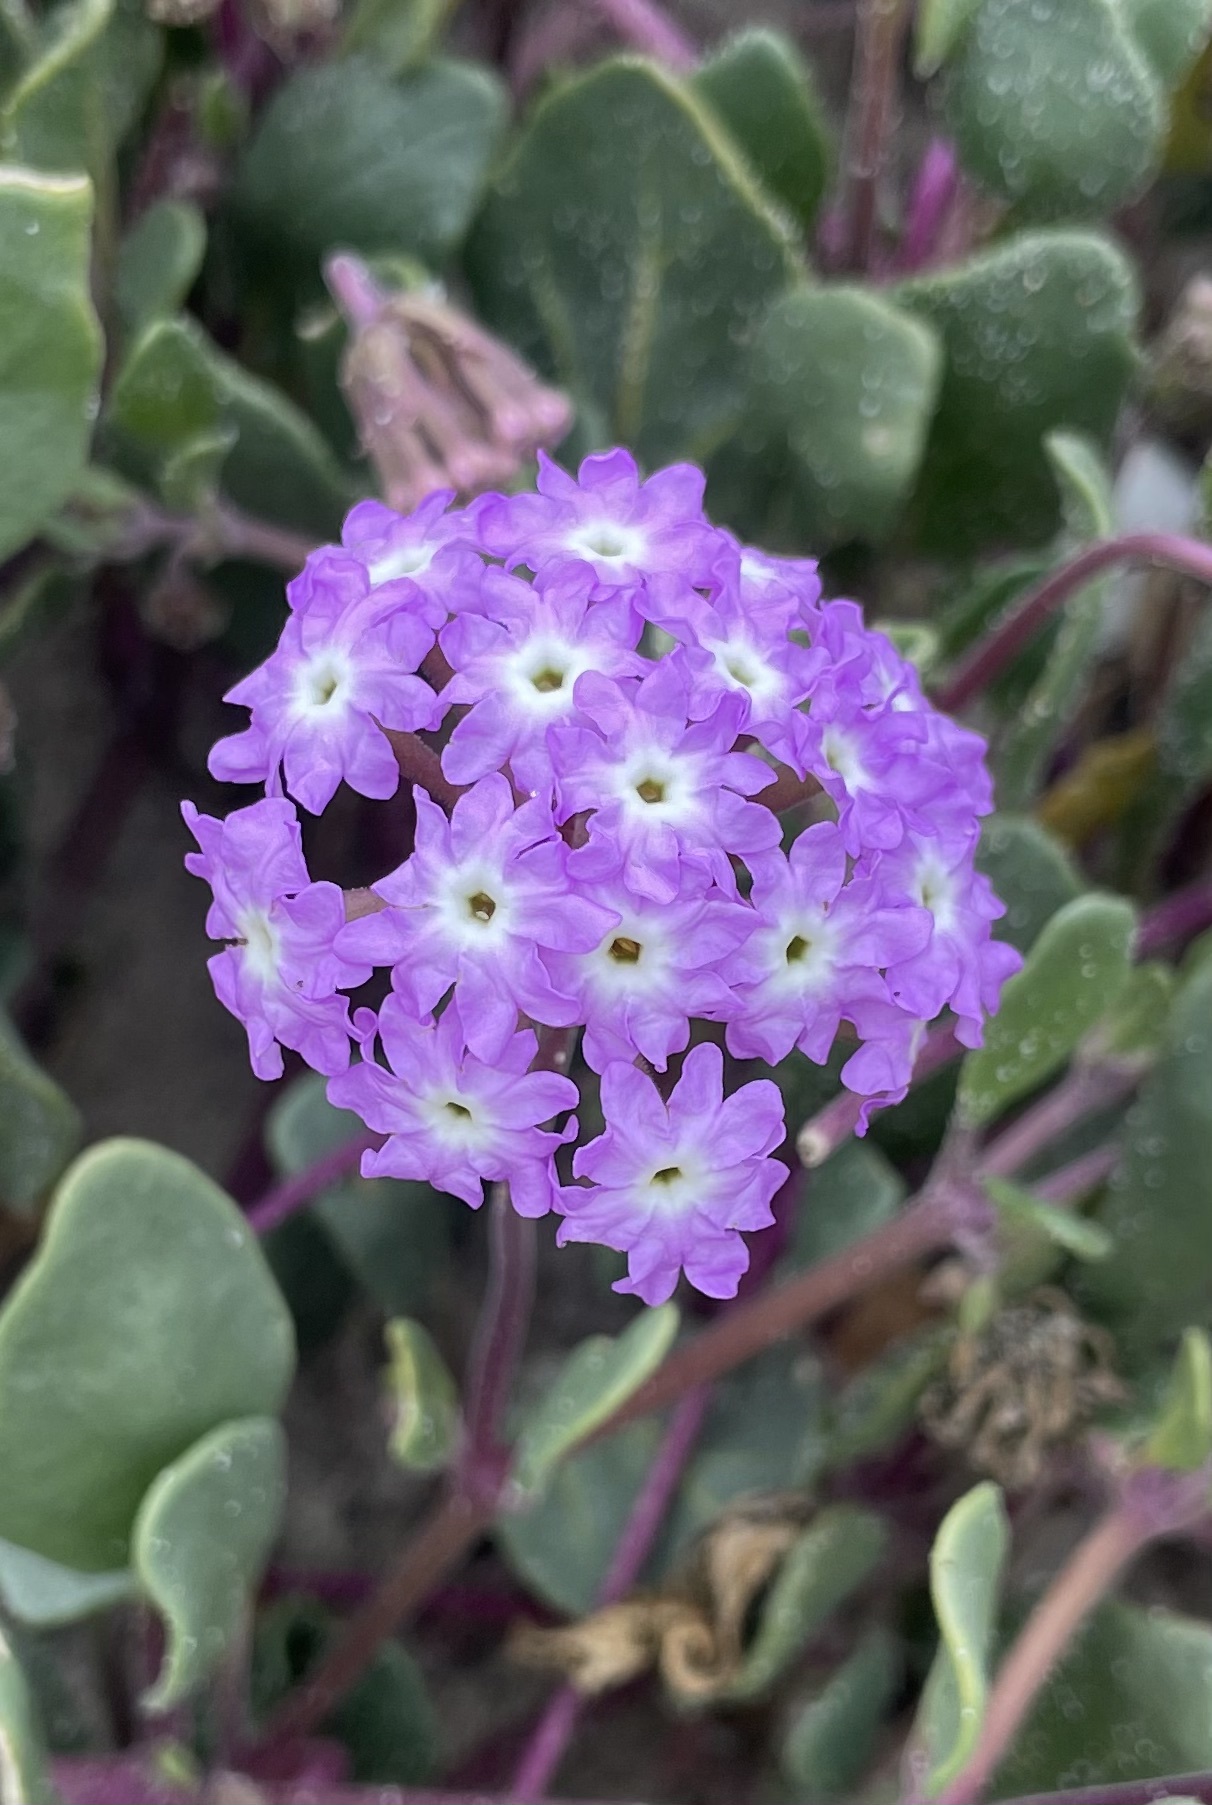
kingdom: Plantae
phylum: Tracheophyta
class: Magnoliopsida
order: Caryophyllales
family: Nyctaginaceae
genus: Abronia
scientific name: Abronia umbellata
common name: Sand-verbena
